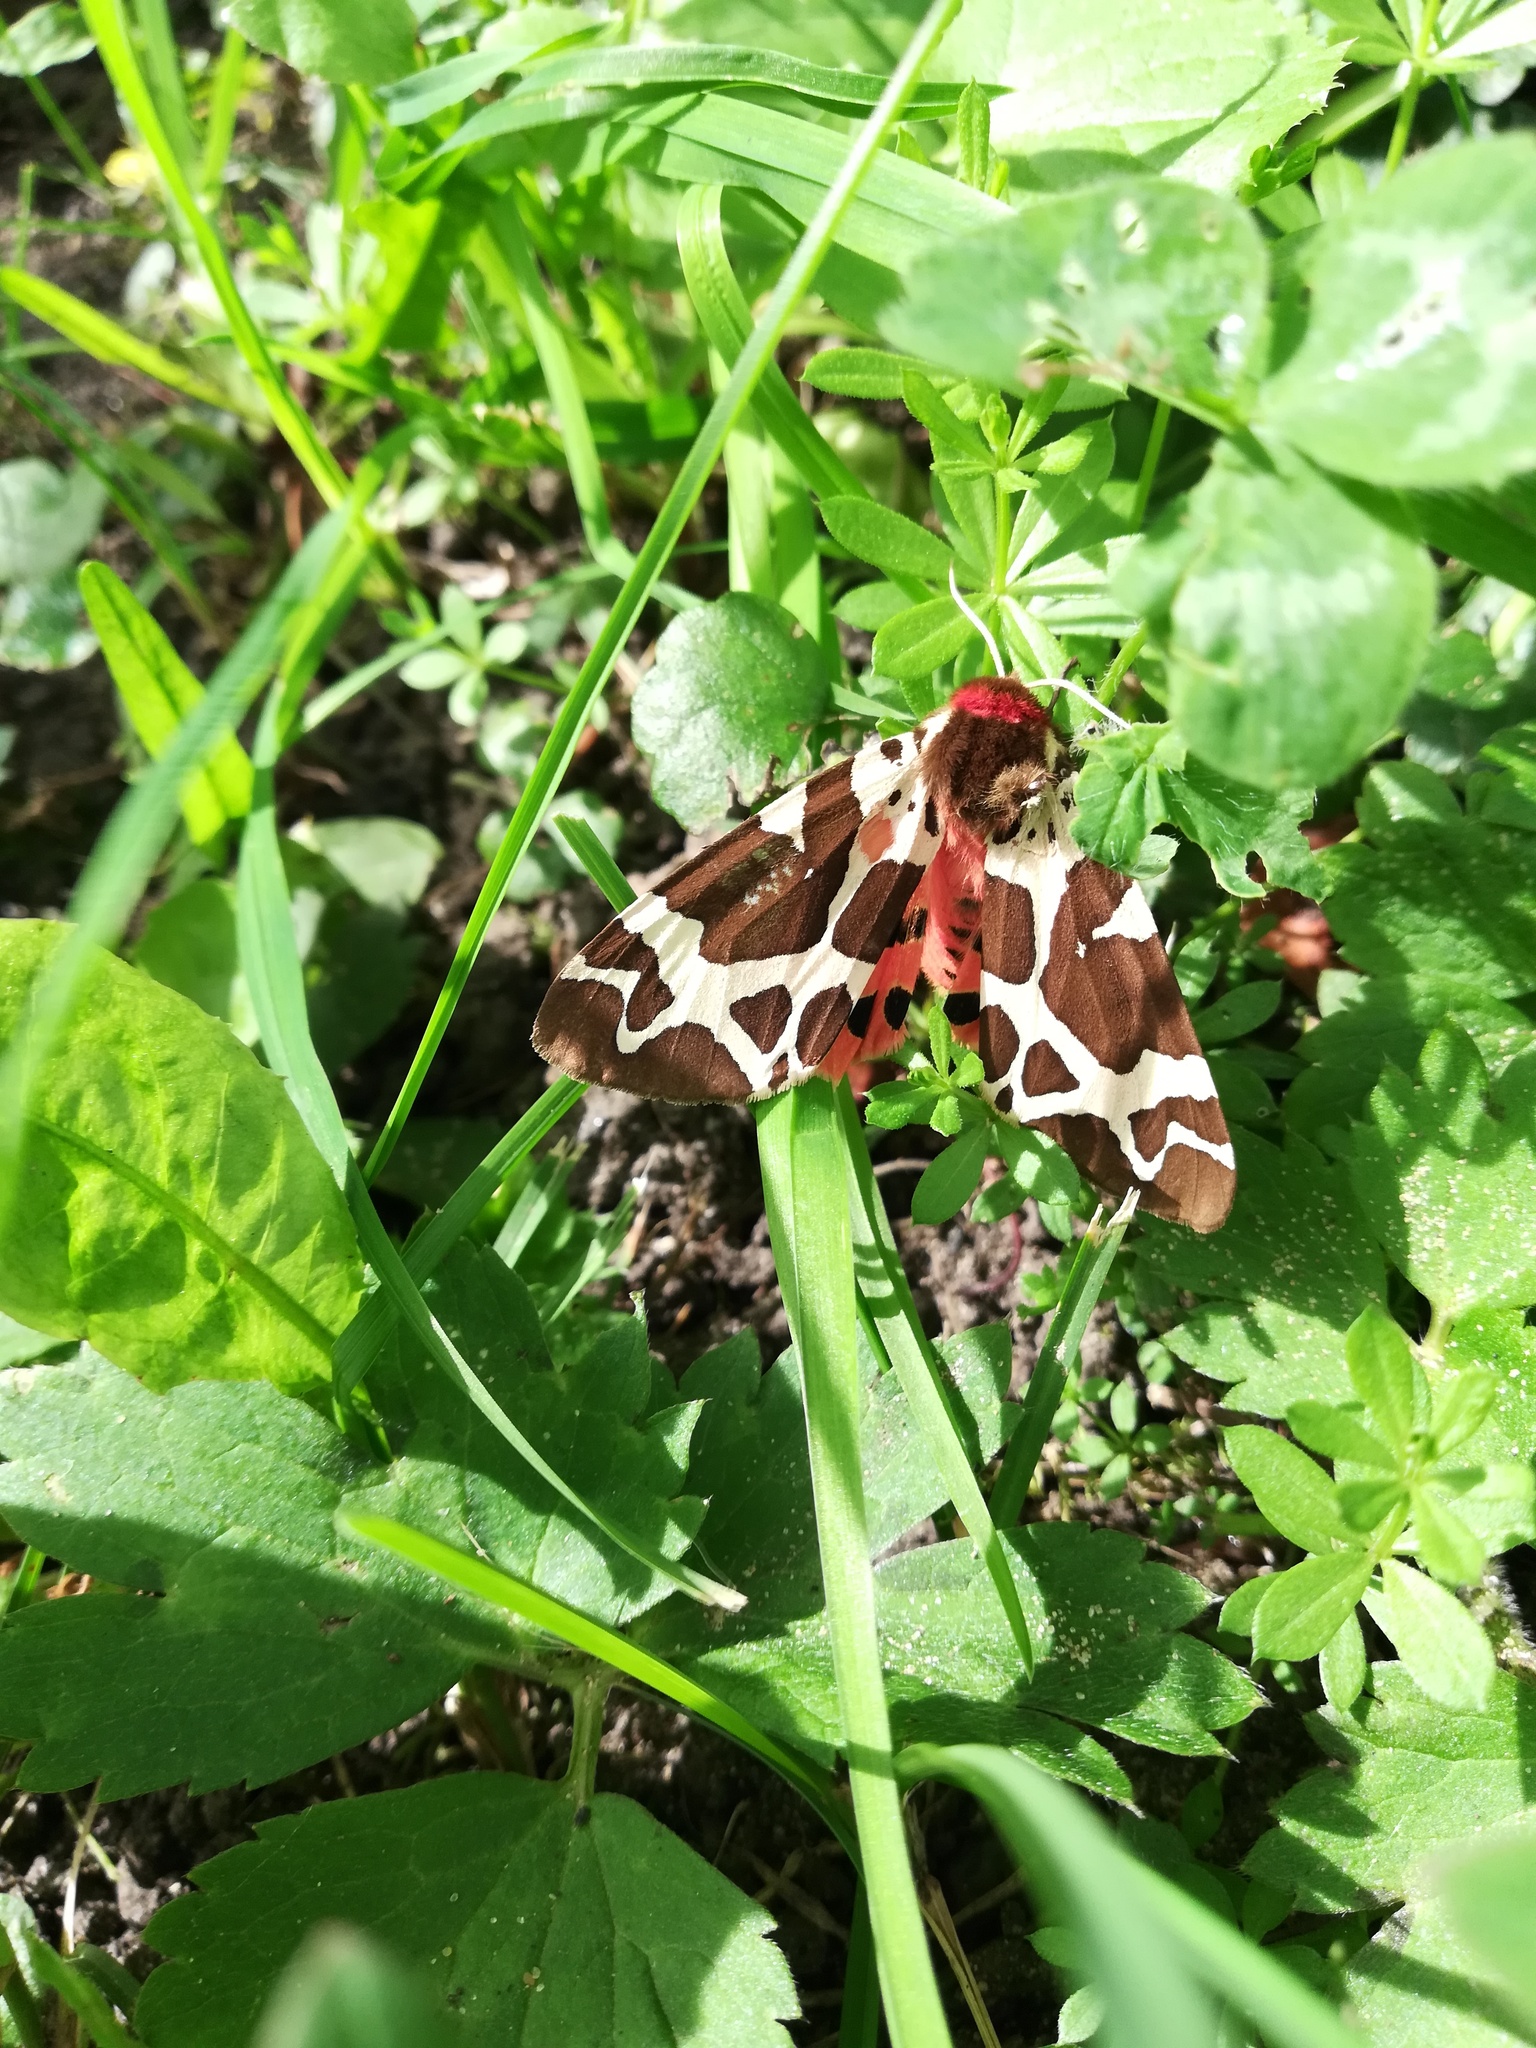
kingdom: Animalia
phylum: Arthropoda
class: Insecta
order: Lepidoptera
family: Erebidae
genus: Arctia
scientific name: Arctia caja
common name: Garden tiger
